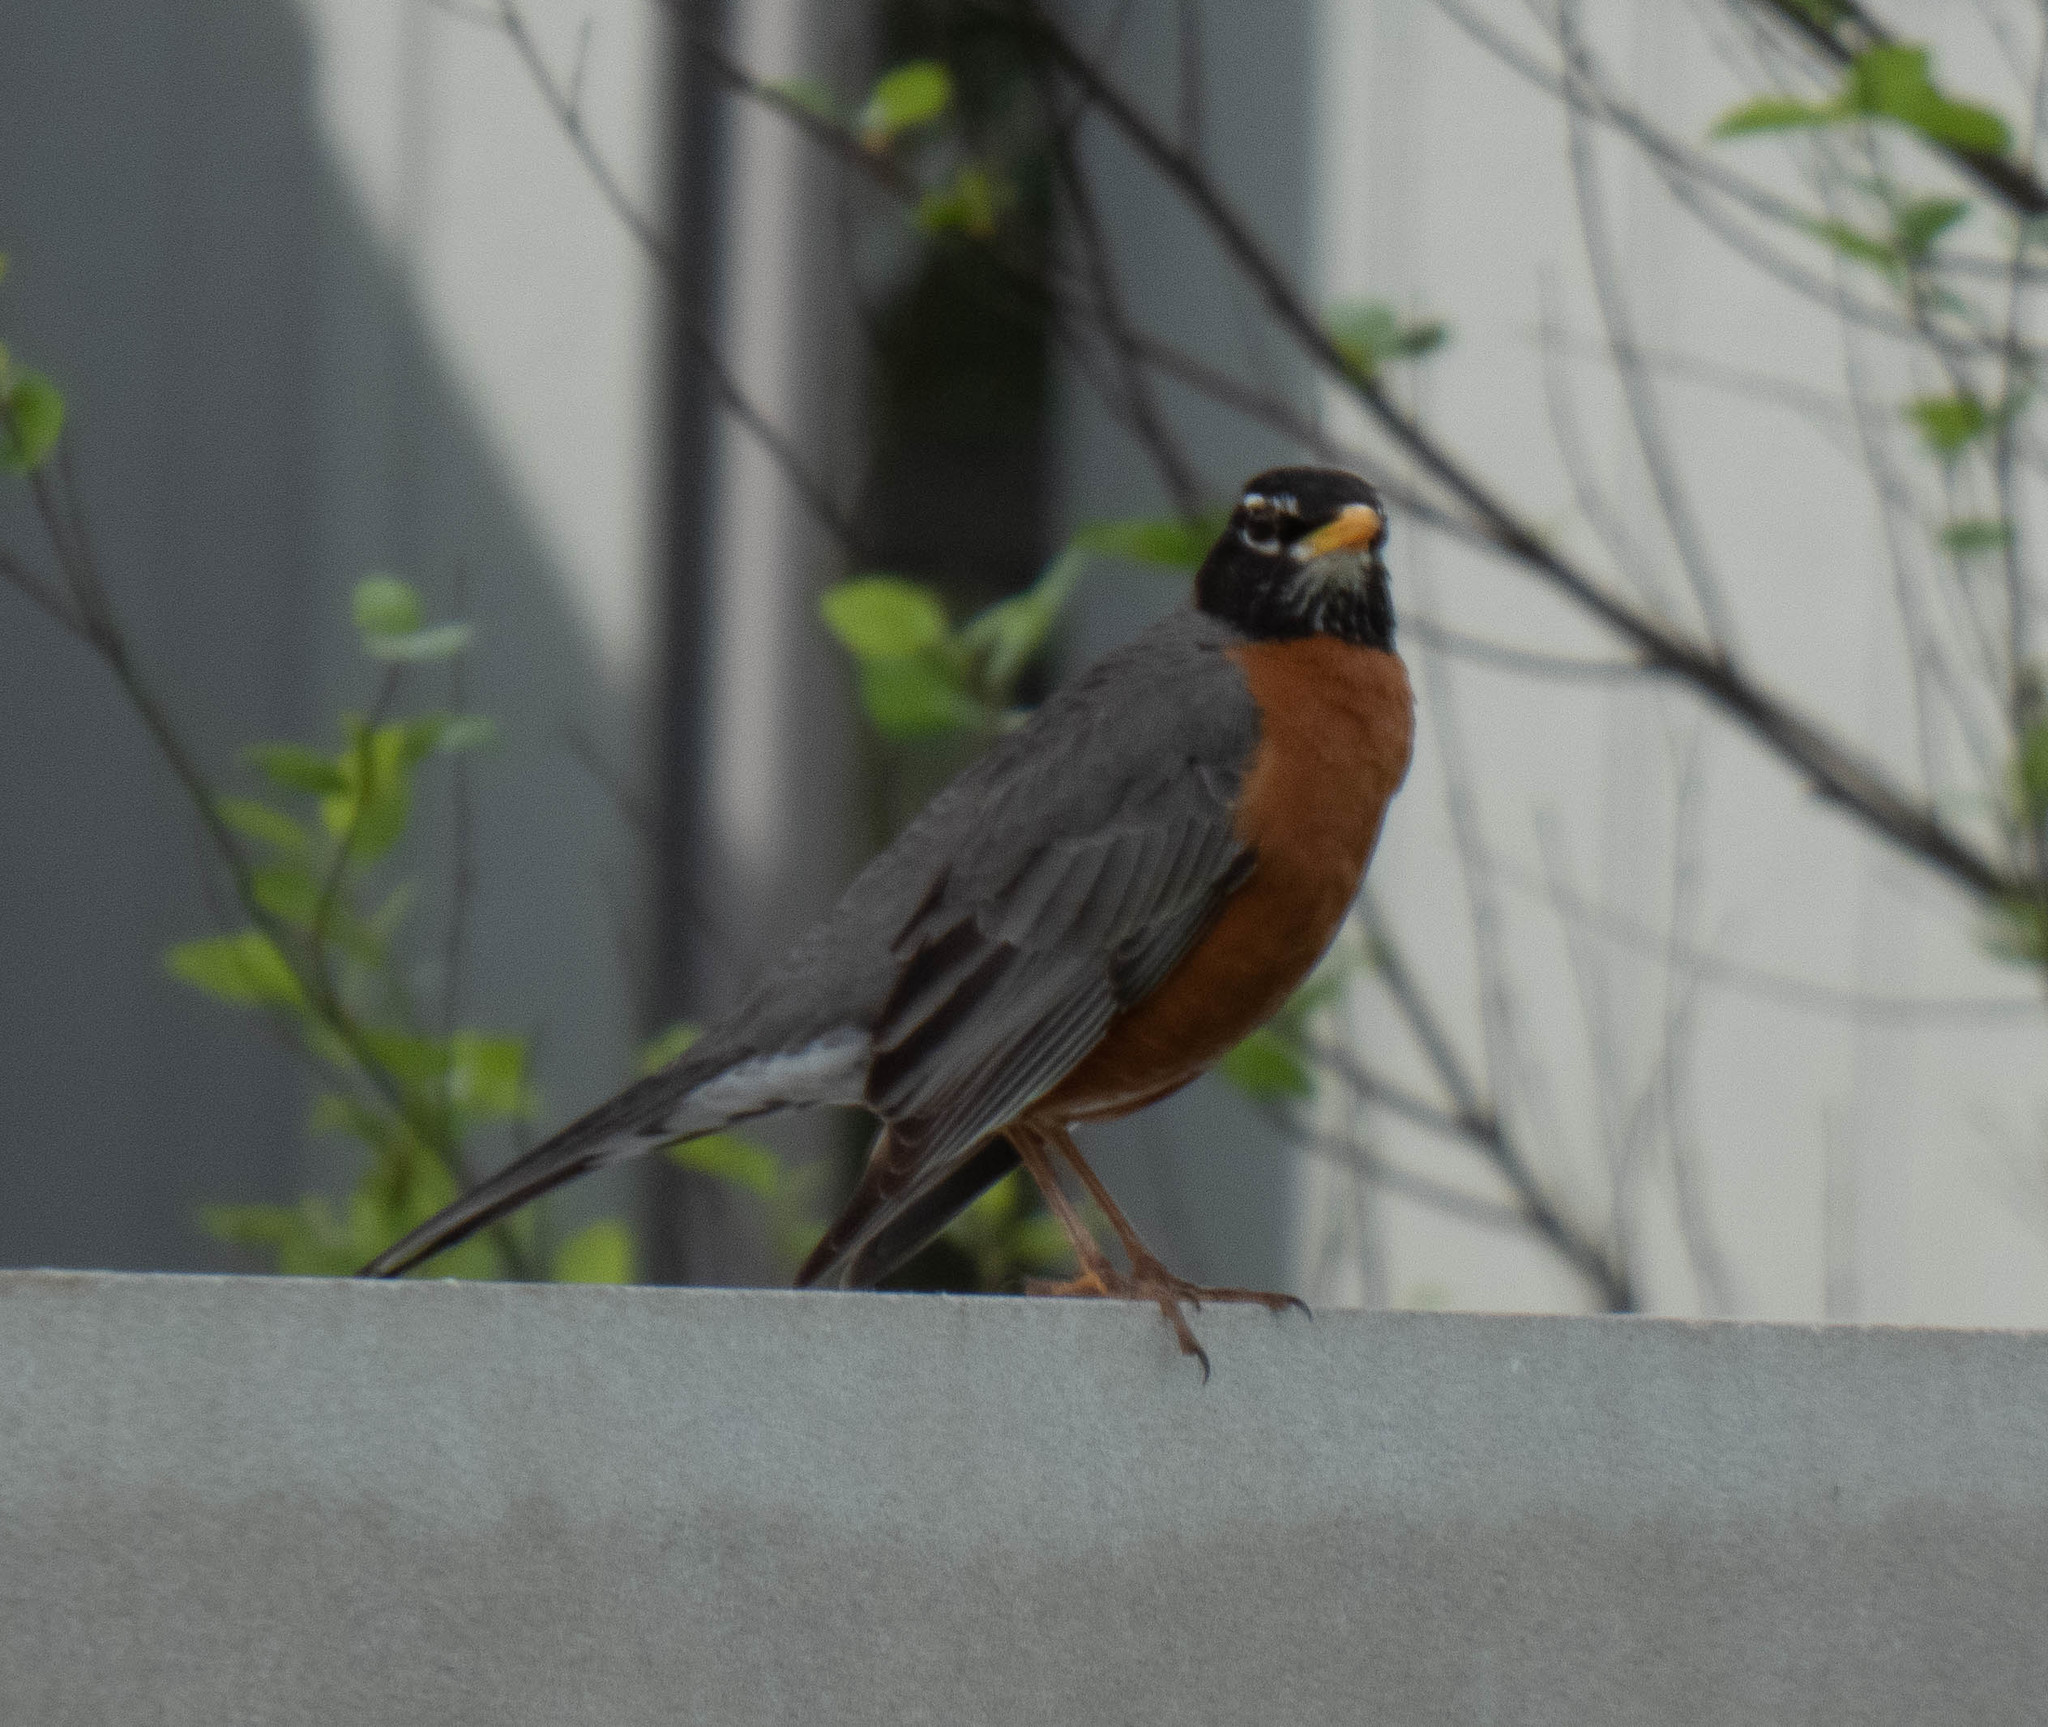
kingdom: Animalia
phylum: Chordata
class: Aves
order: Passeriformes
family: Turdidae
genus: Turdus
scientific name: Turdus migratorius
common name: American robin
